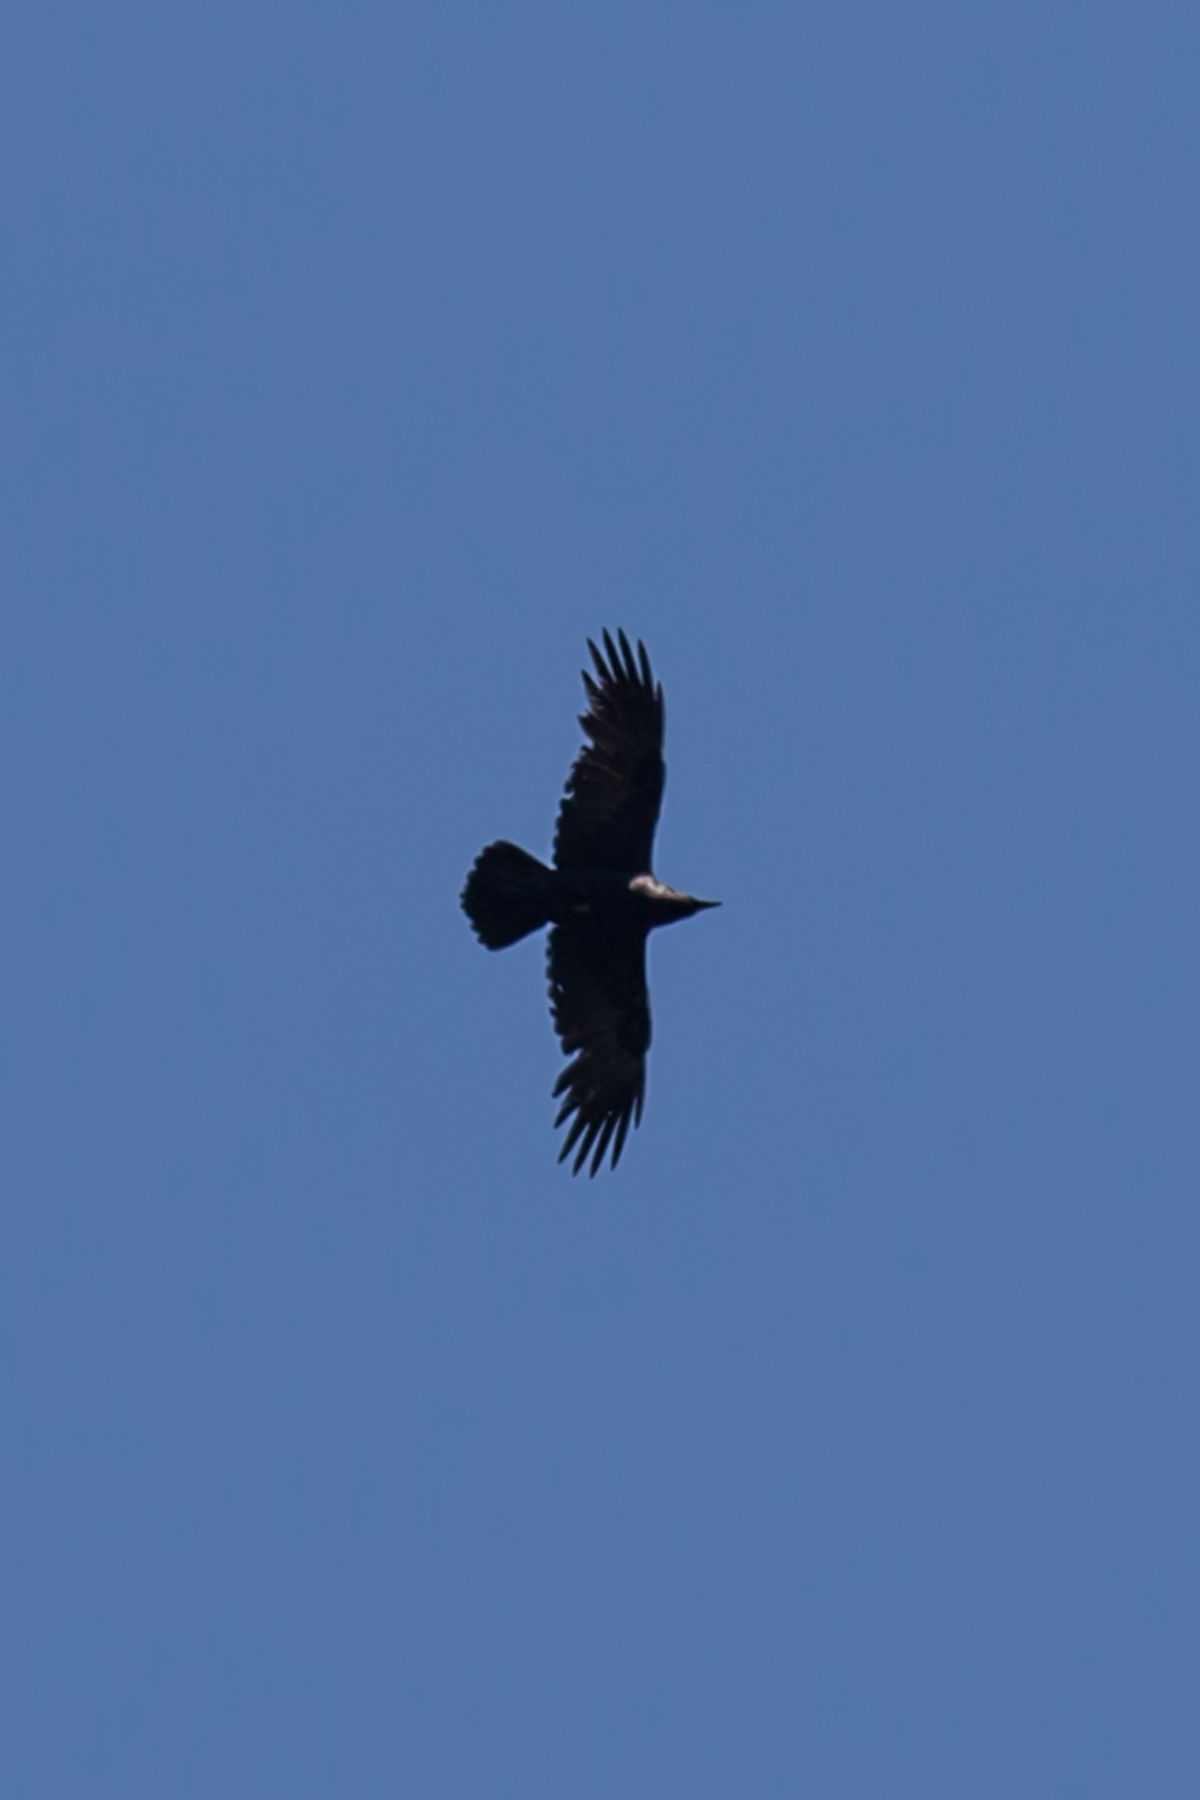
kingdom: Animalia
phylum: Chordata
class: Aves
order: Passeriformes
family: Corvidae
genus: Corvus
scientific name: Corvus corax
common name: Common raven
